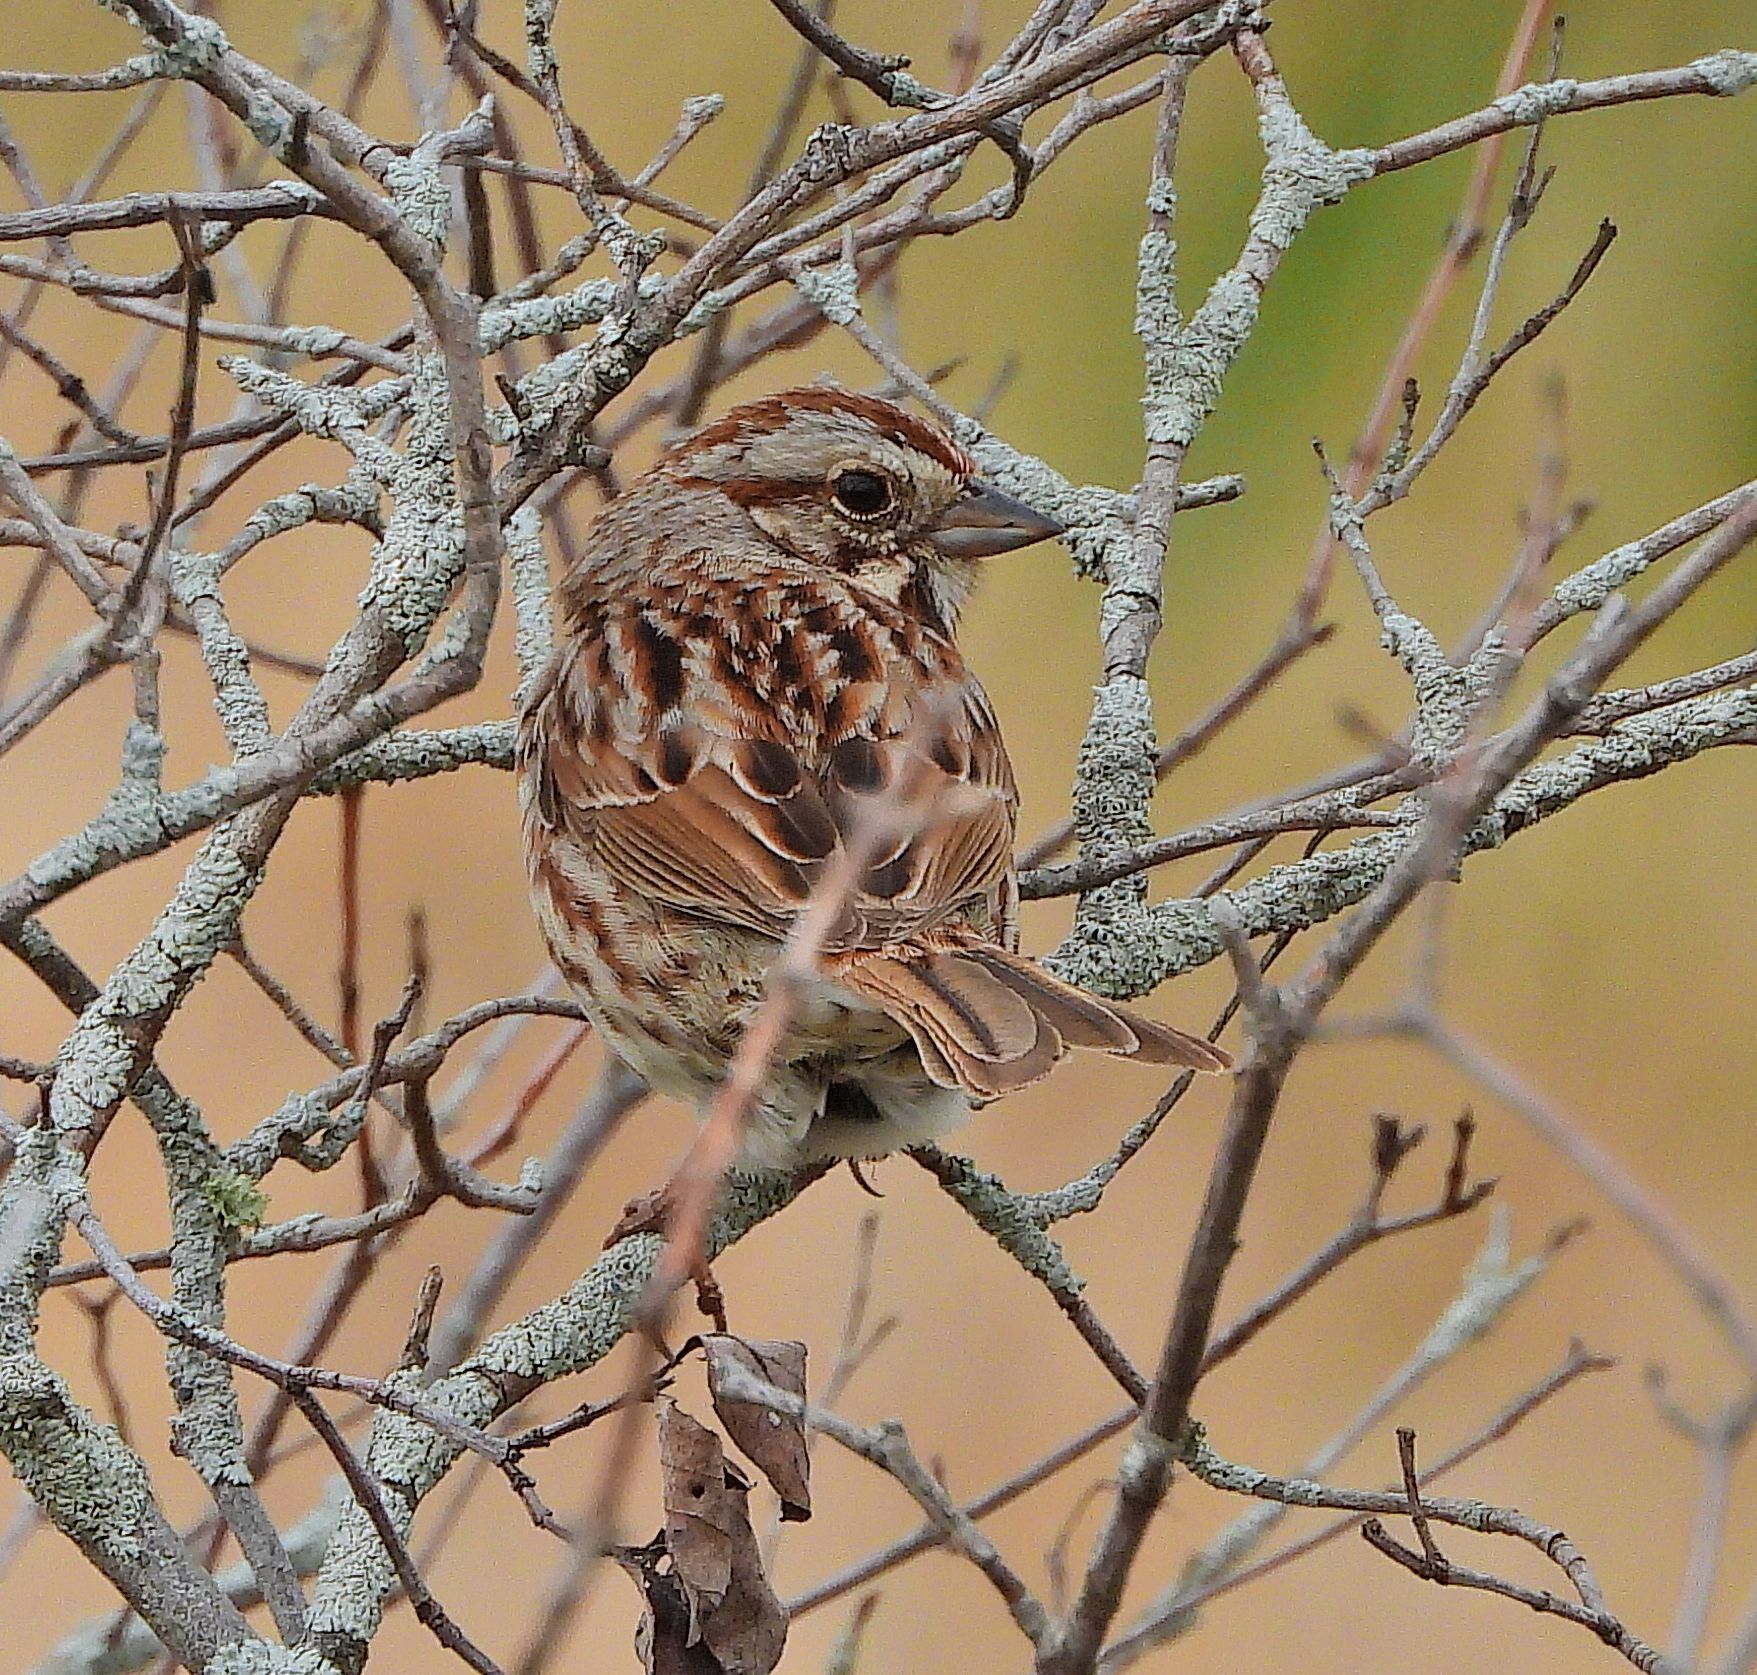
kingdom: Animalia
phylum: Chordata
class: Aves
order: Passeriformes
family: Passerellidae
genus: Melospiza
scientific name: Melospiza melodia
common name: Song sparrow
